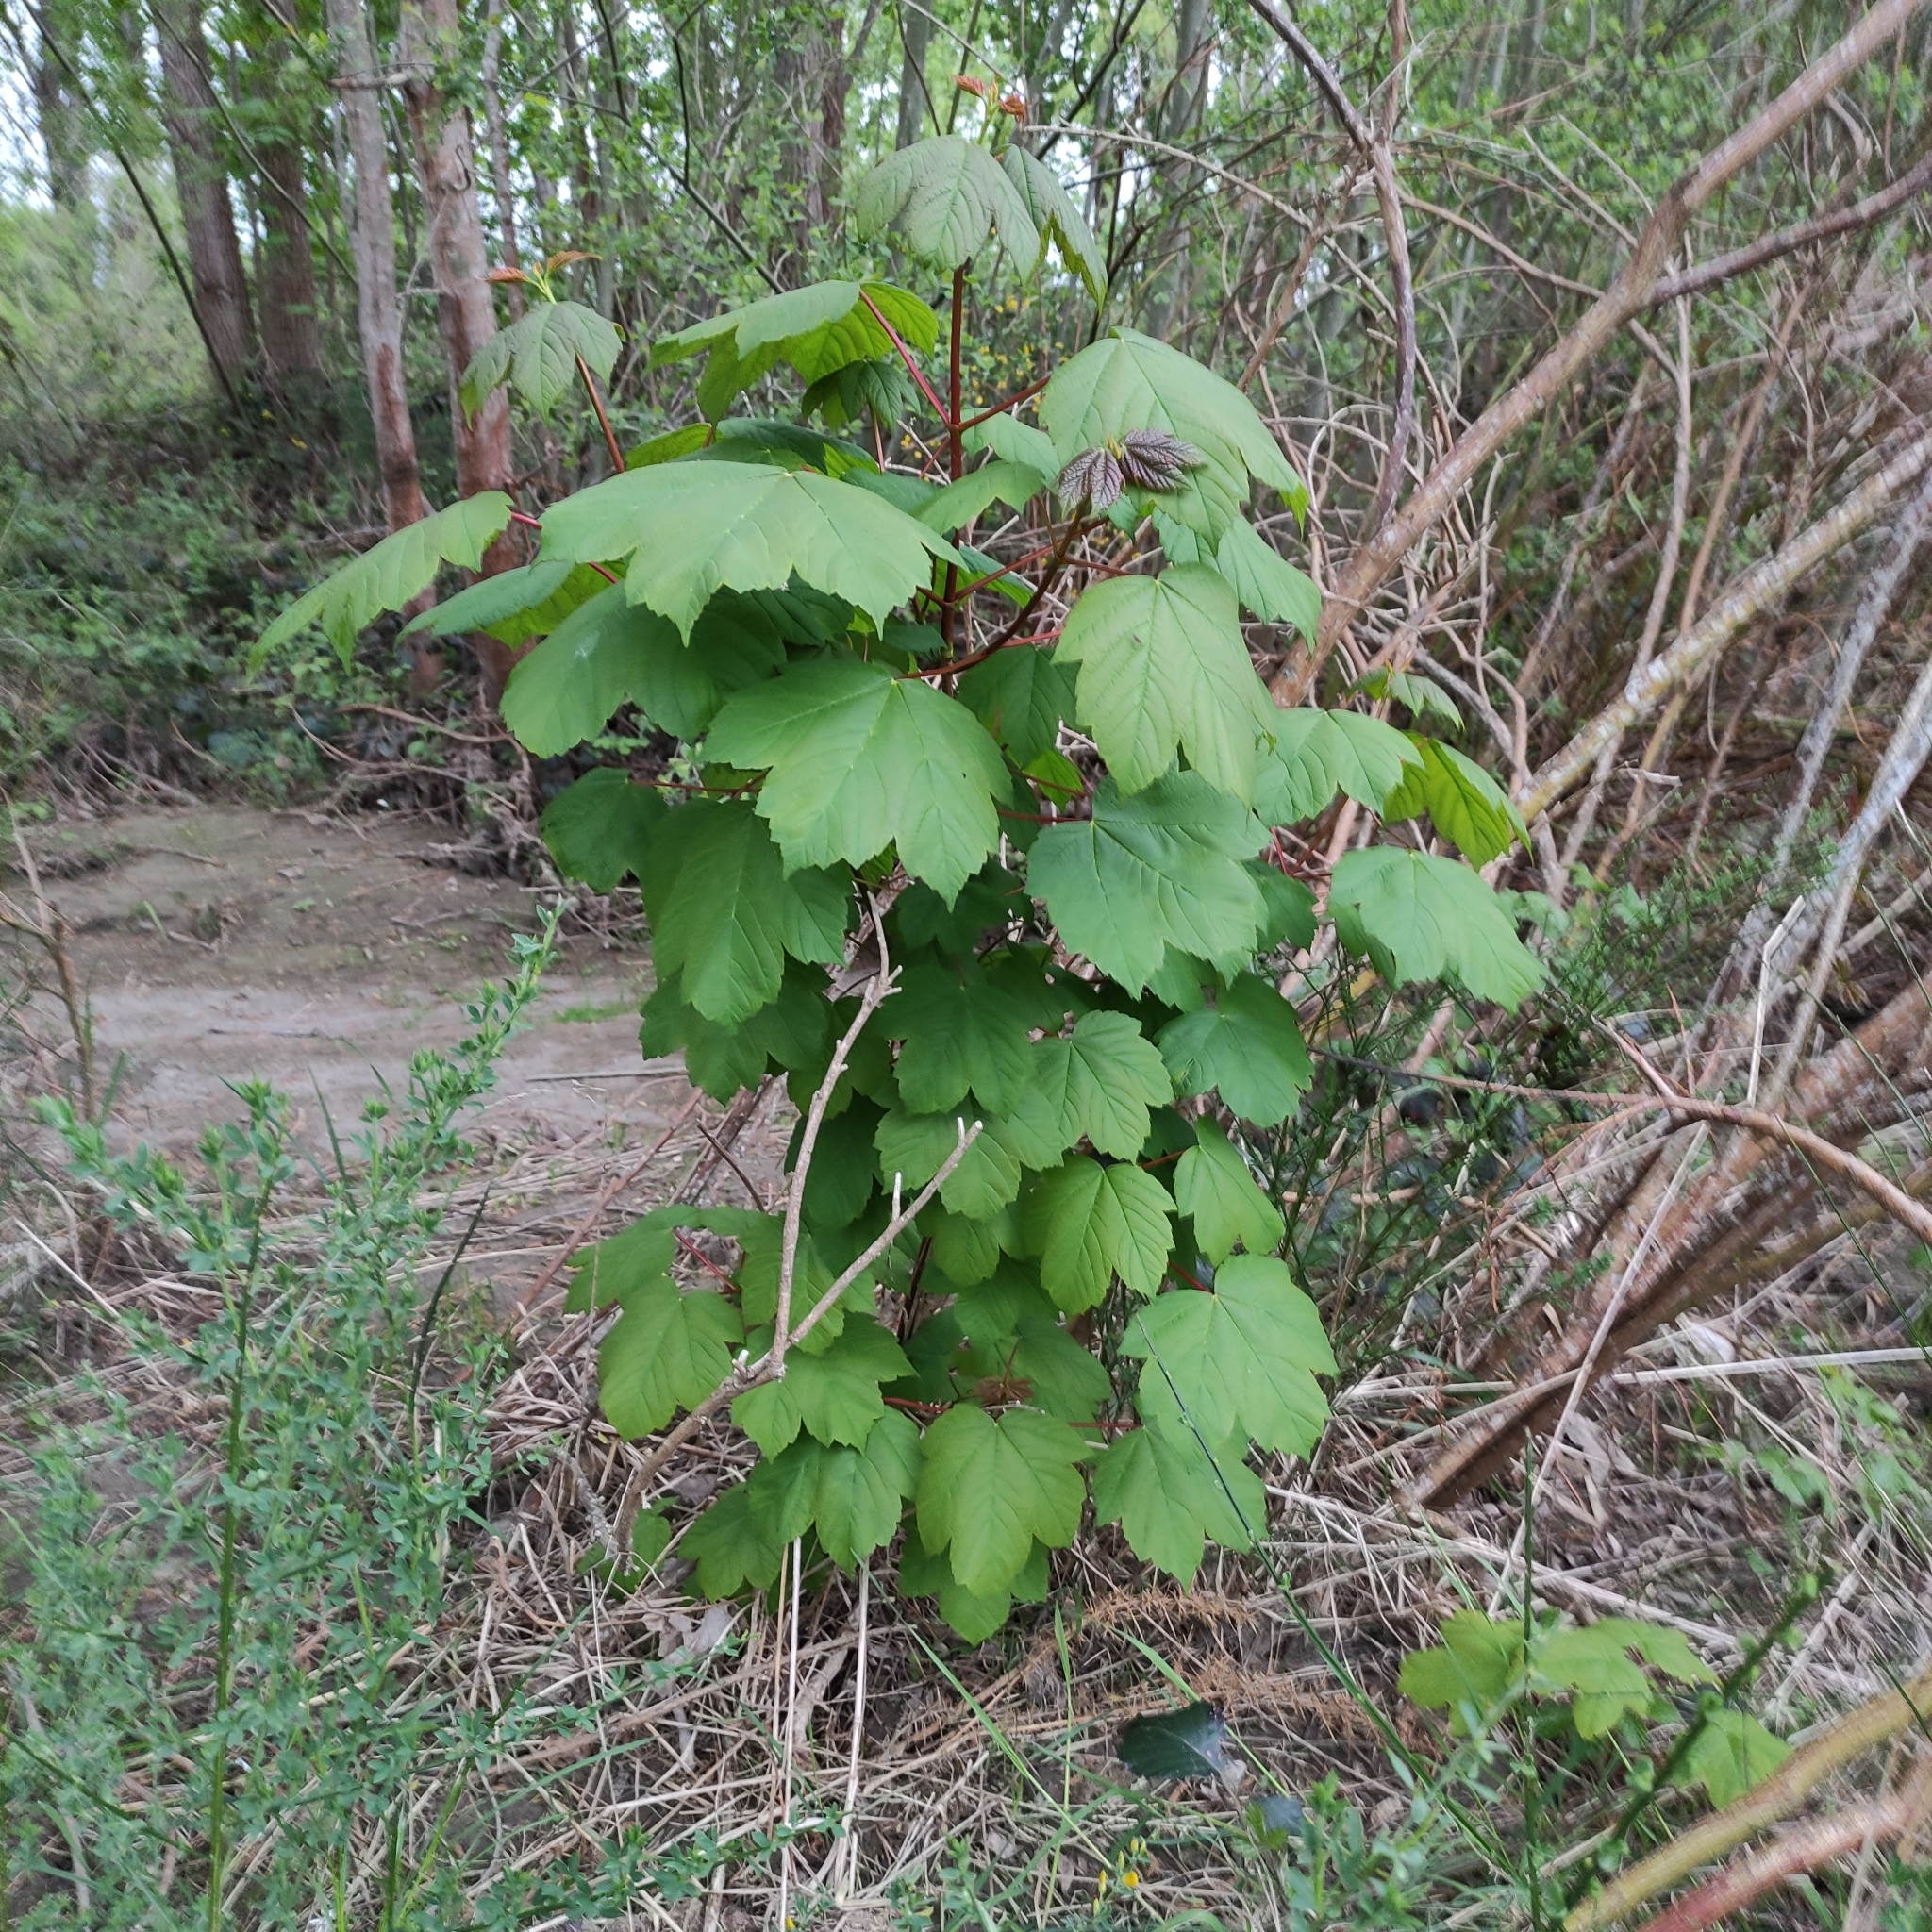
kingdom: Plantae
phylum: Tracheophyta
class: Magnoliopsida
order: Sapindales
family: Sapindaceae
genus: Acer
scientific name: Acer pseudoplatanus
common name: Sycamore
